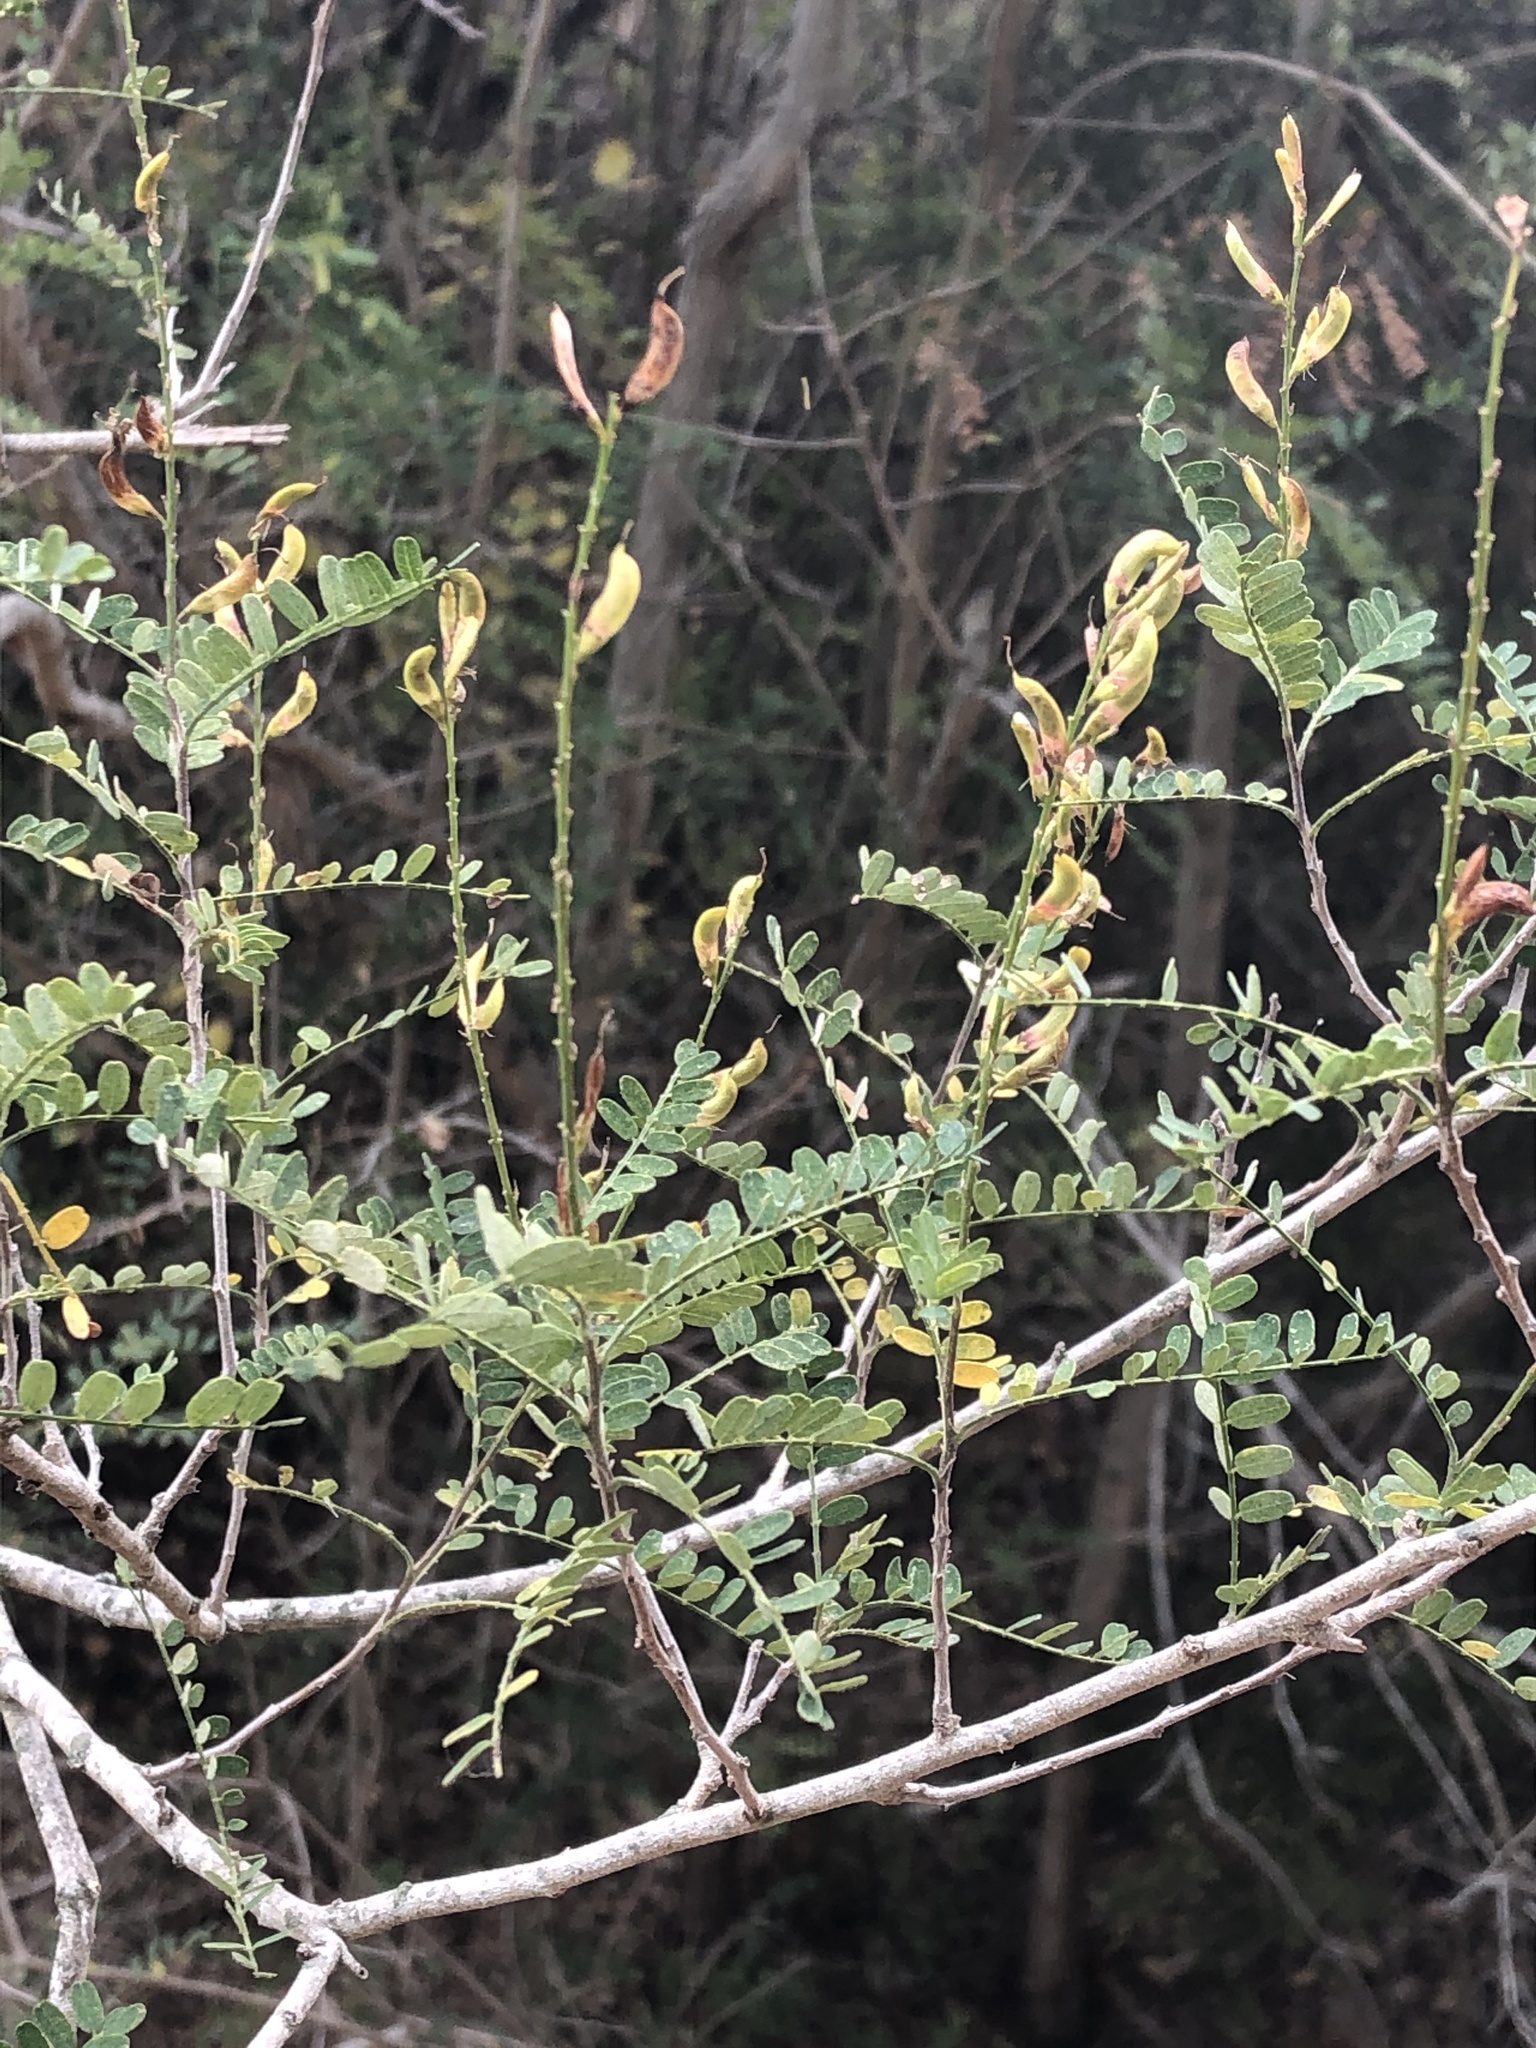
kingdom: Plantae
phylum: Tracheophyta
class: Magnoliopsida
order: Fabales
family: Fabaceae
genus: Eysenhardtia
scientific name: Eysenhardtia texana
